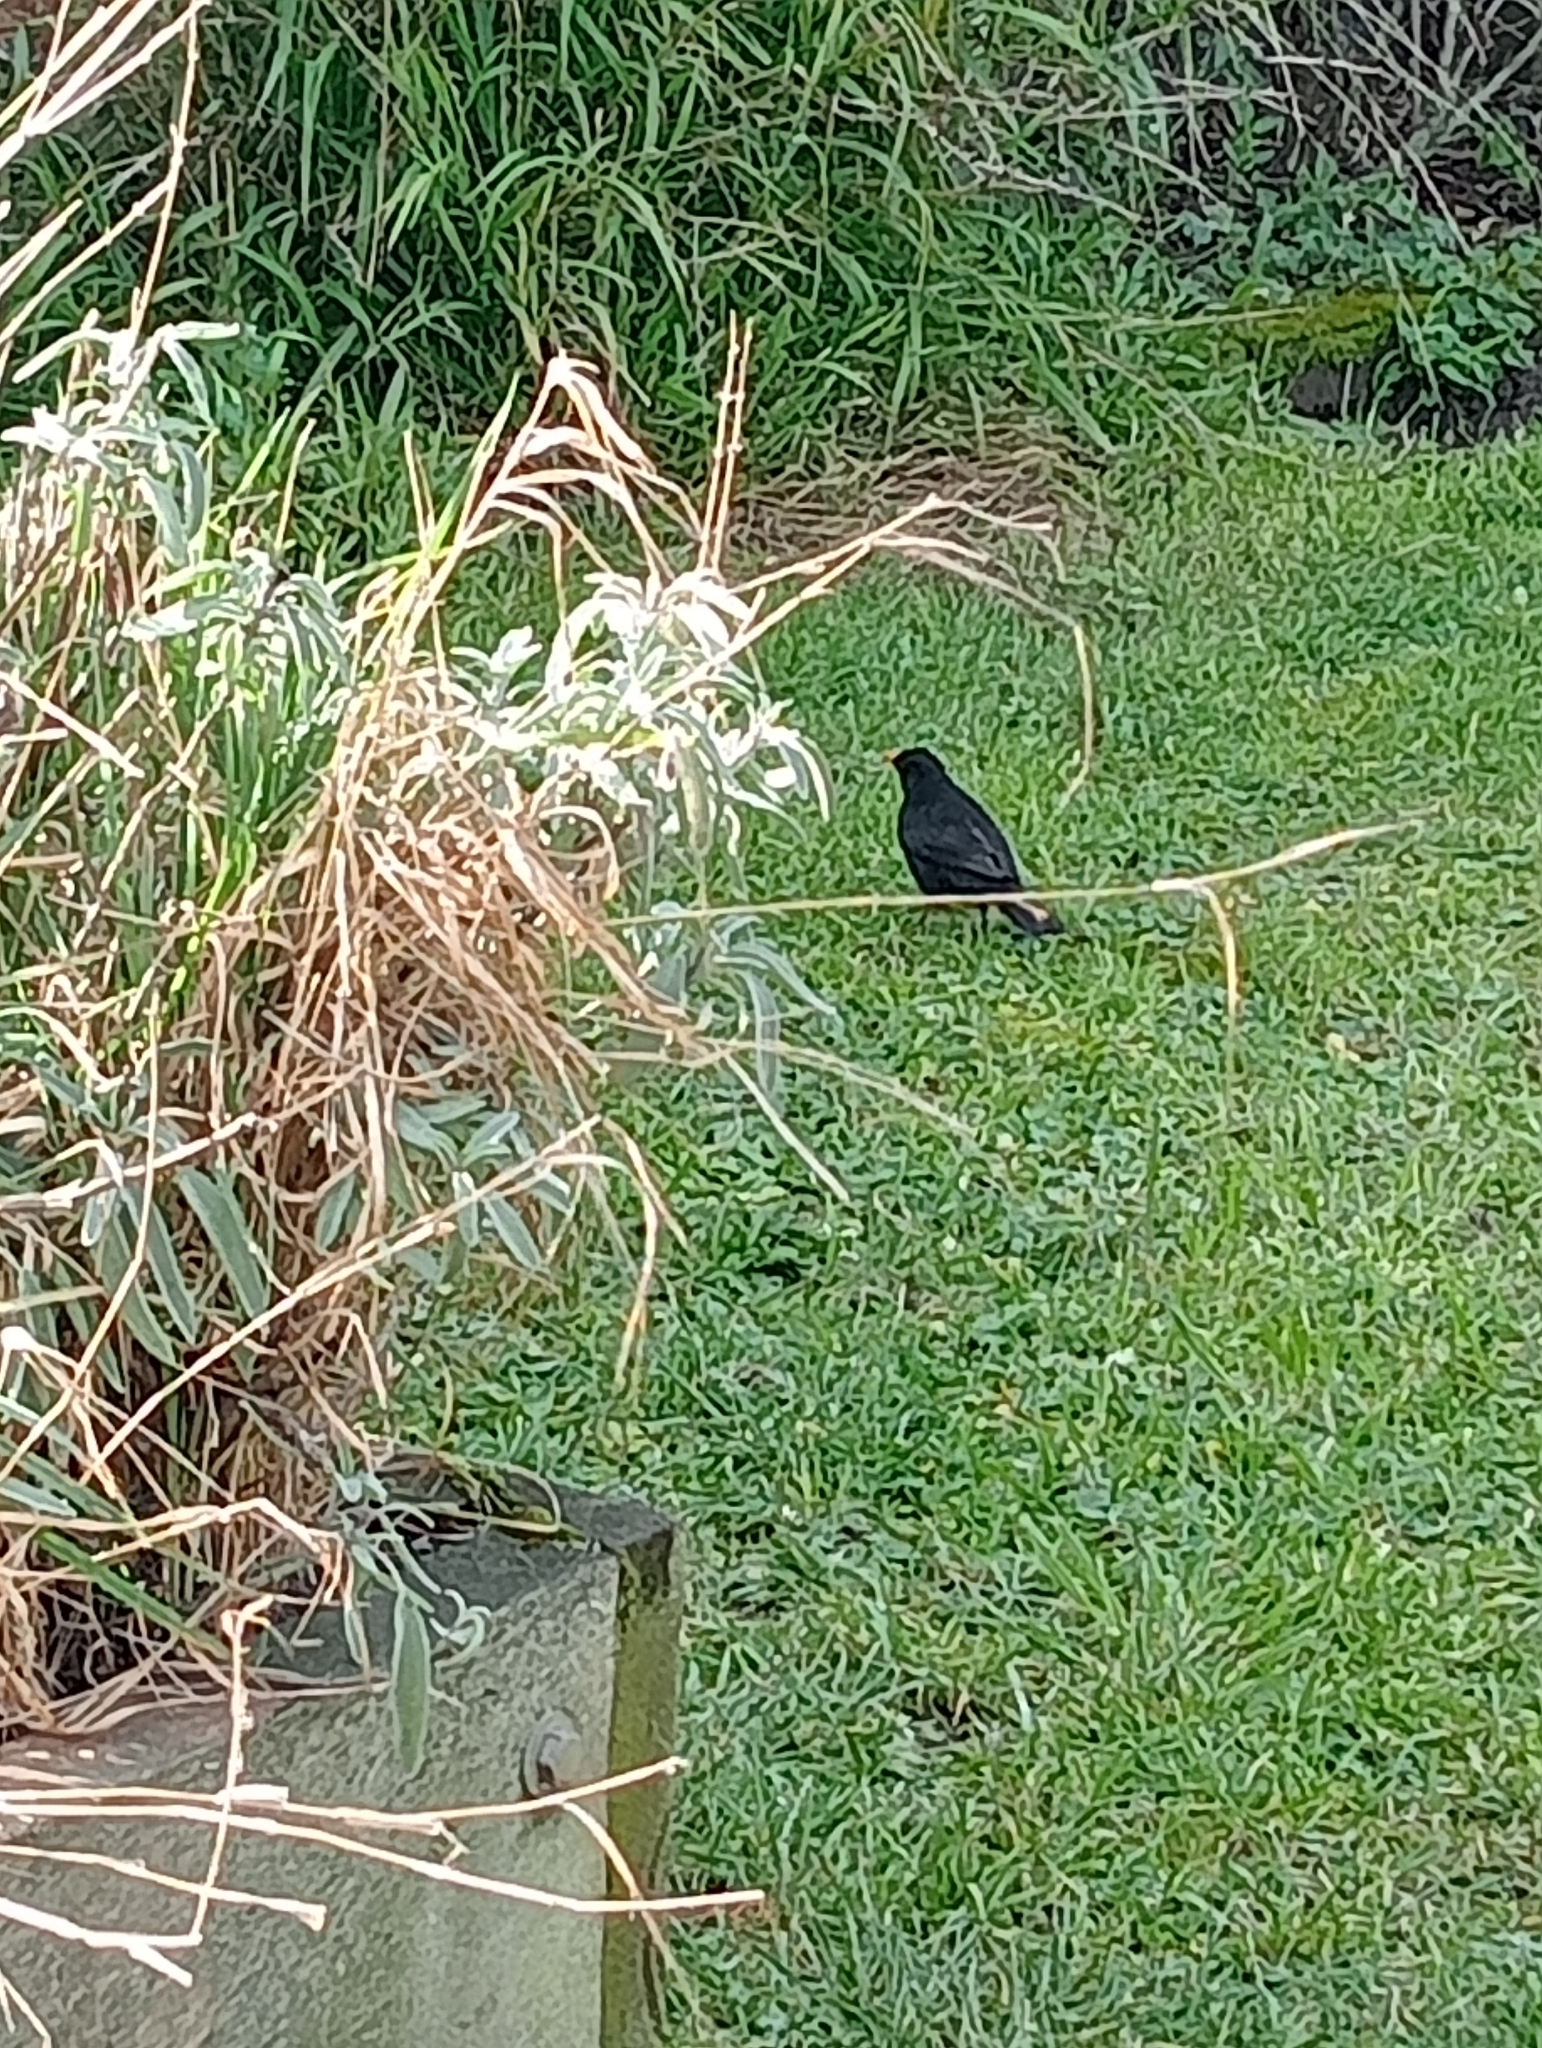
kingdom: Animalia
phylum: Chordata
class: Aves
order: Passeriformes
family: Turdidae
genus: Turdus
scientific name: Turdus merula
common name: Common blackbird
